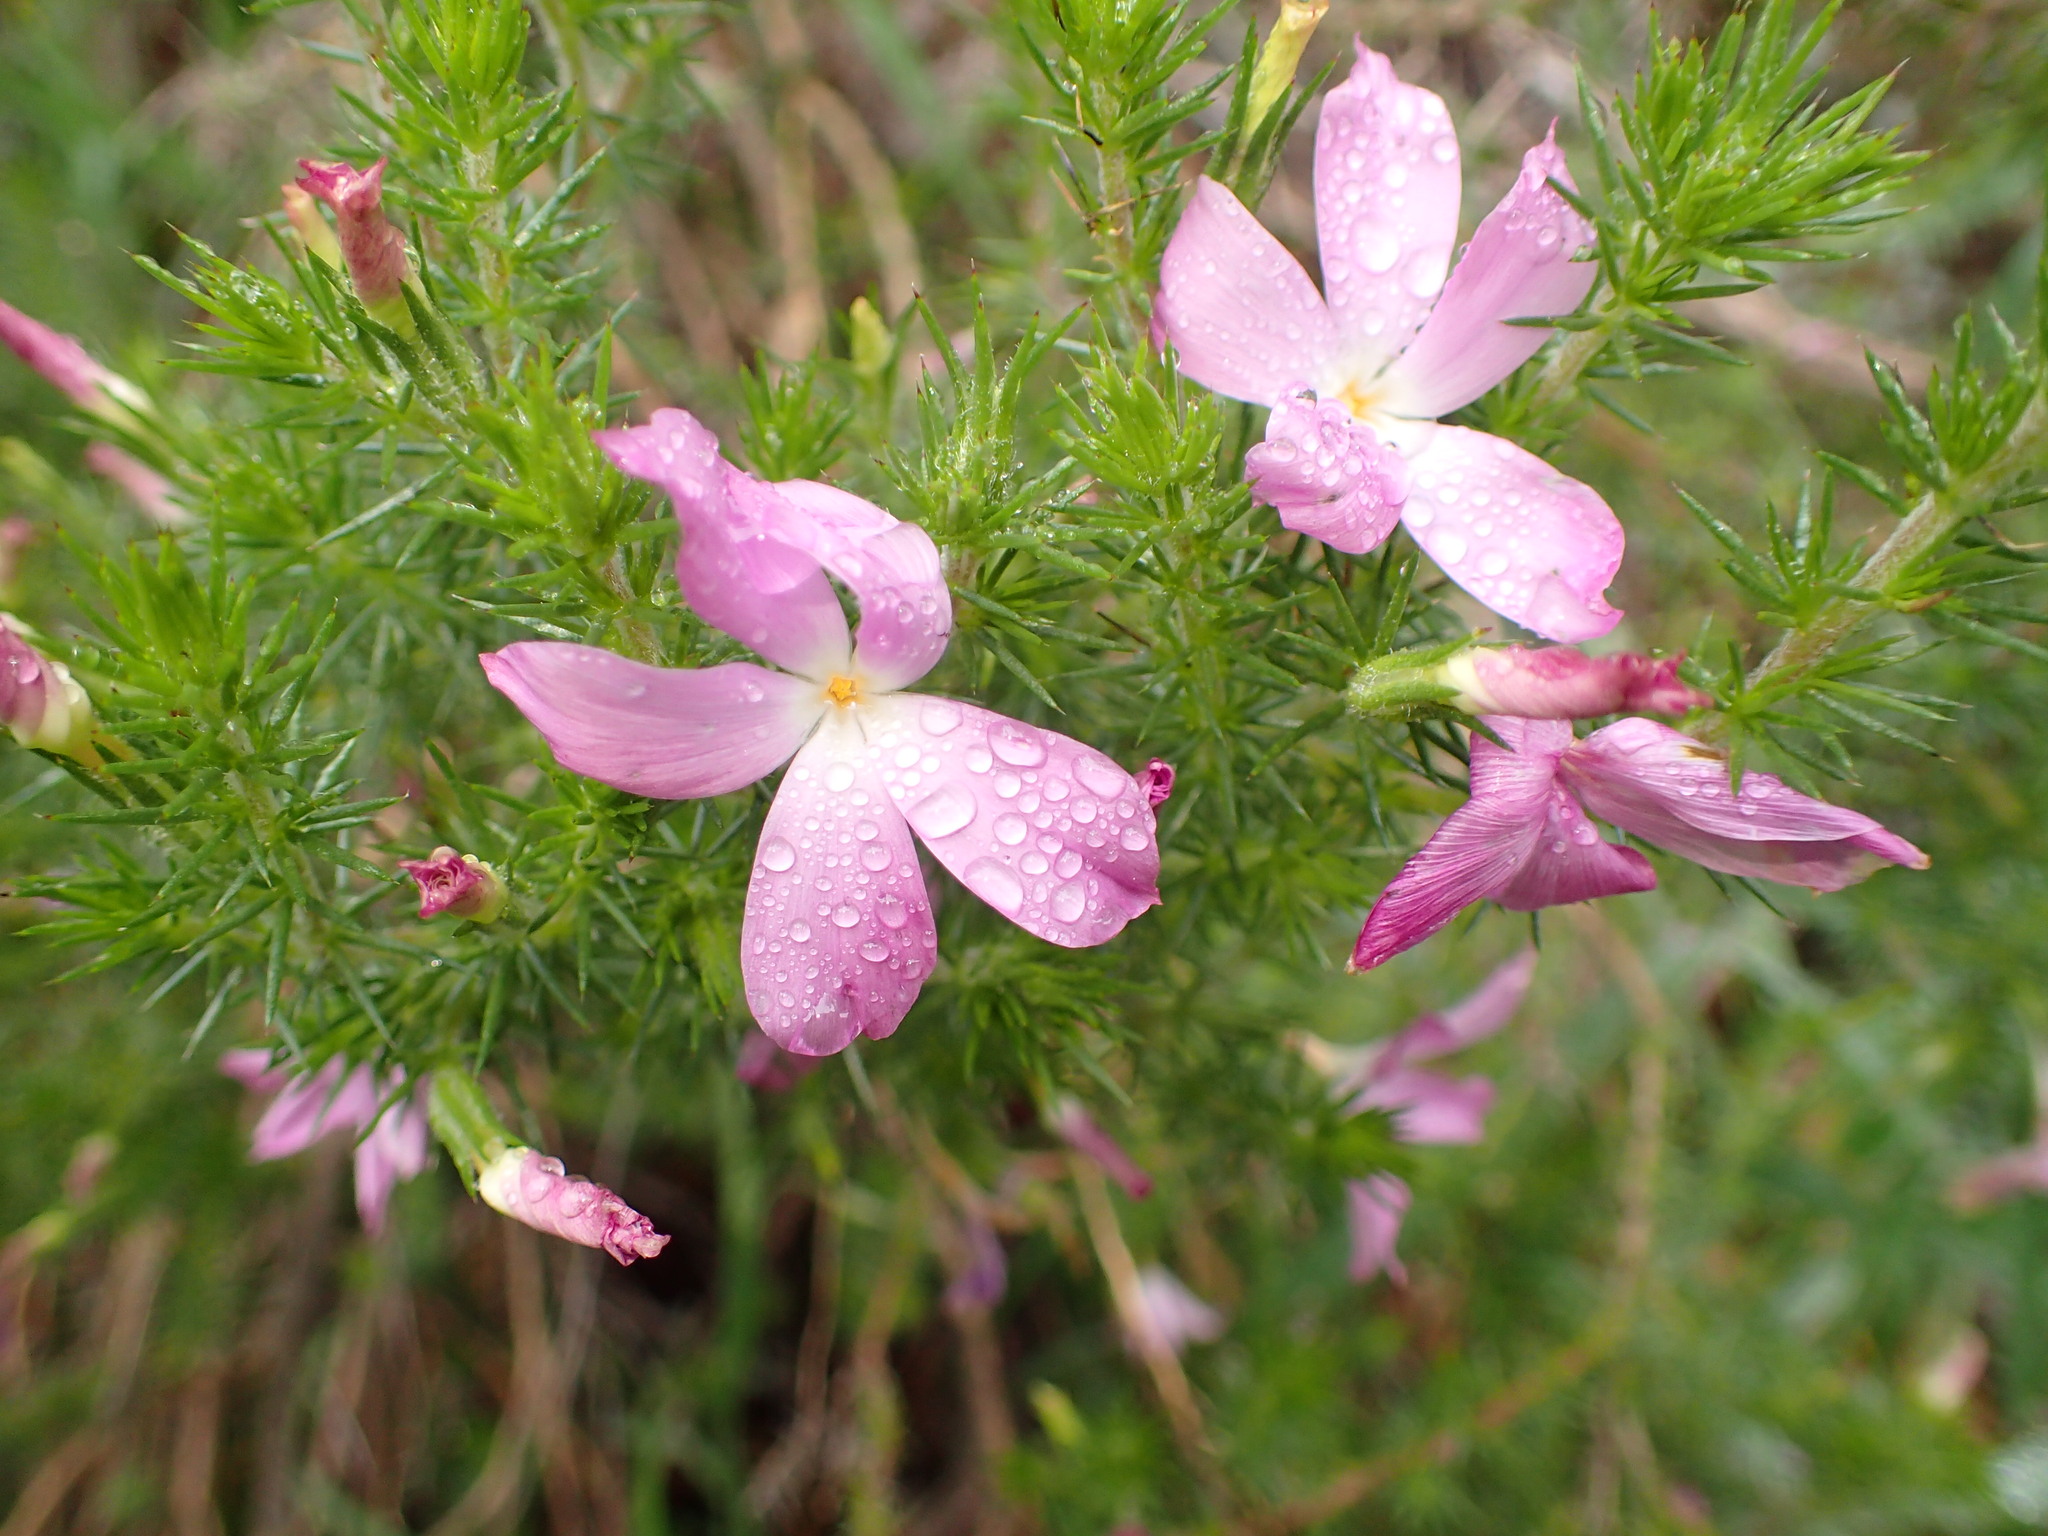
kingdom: Plantae
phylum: Tracheophyta
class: Magnoliopsida
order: Ericales
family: Polemoniaceae
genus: Linanthus
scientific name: Linanthus californicus
